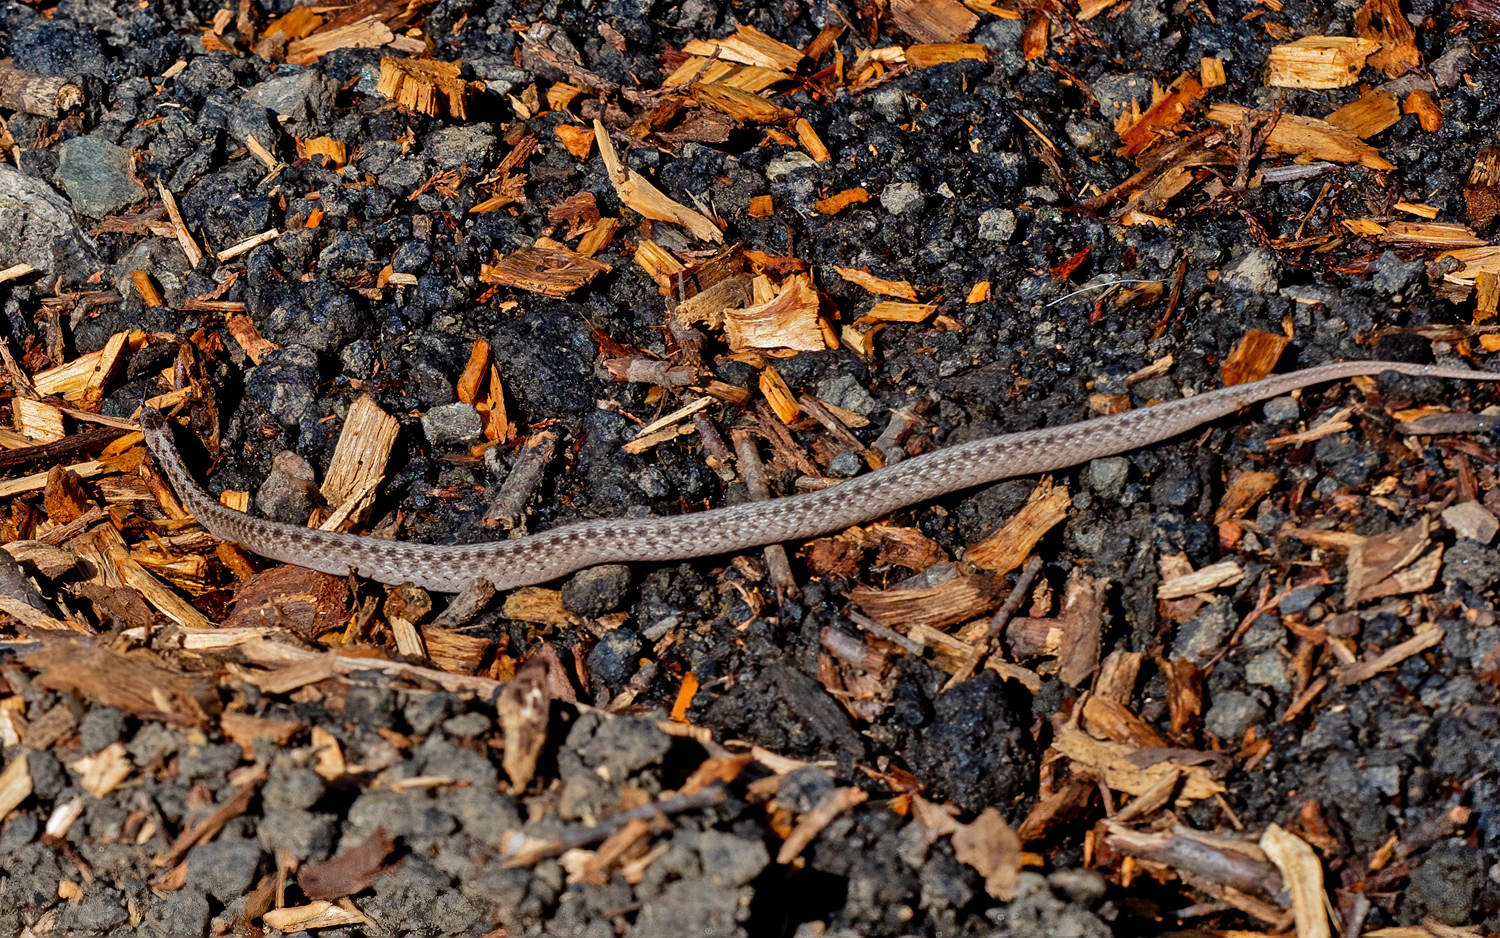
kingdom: Animalia
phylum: Chordata
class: Squamata
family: Colubridae
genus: Storeria
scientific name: Storeria dekayi
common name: (dekay’s) brown snake
